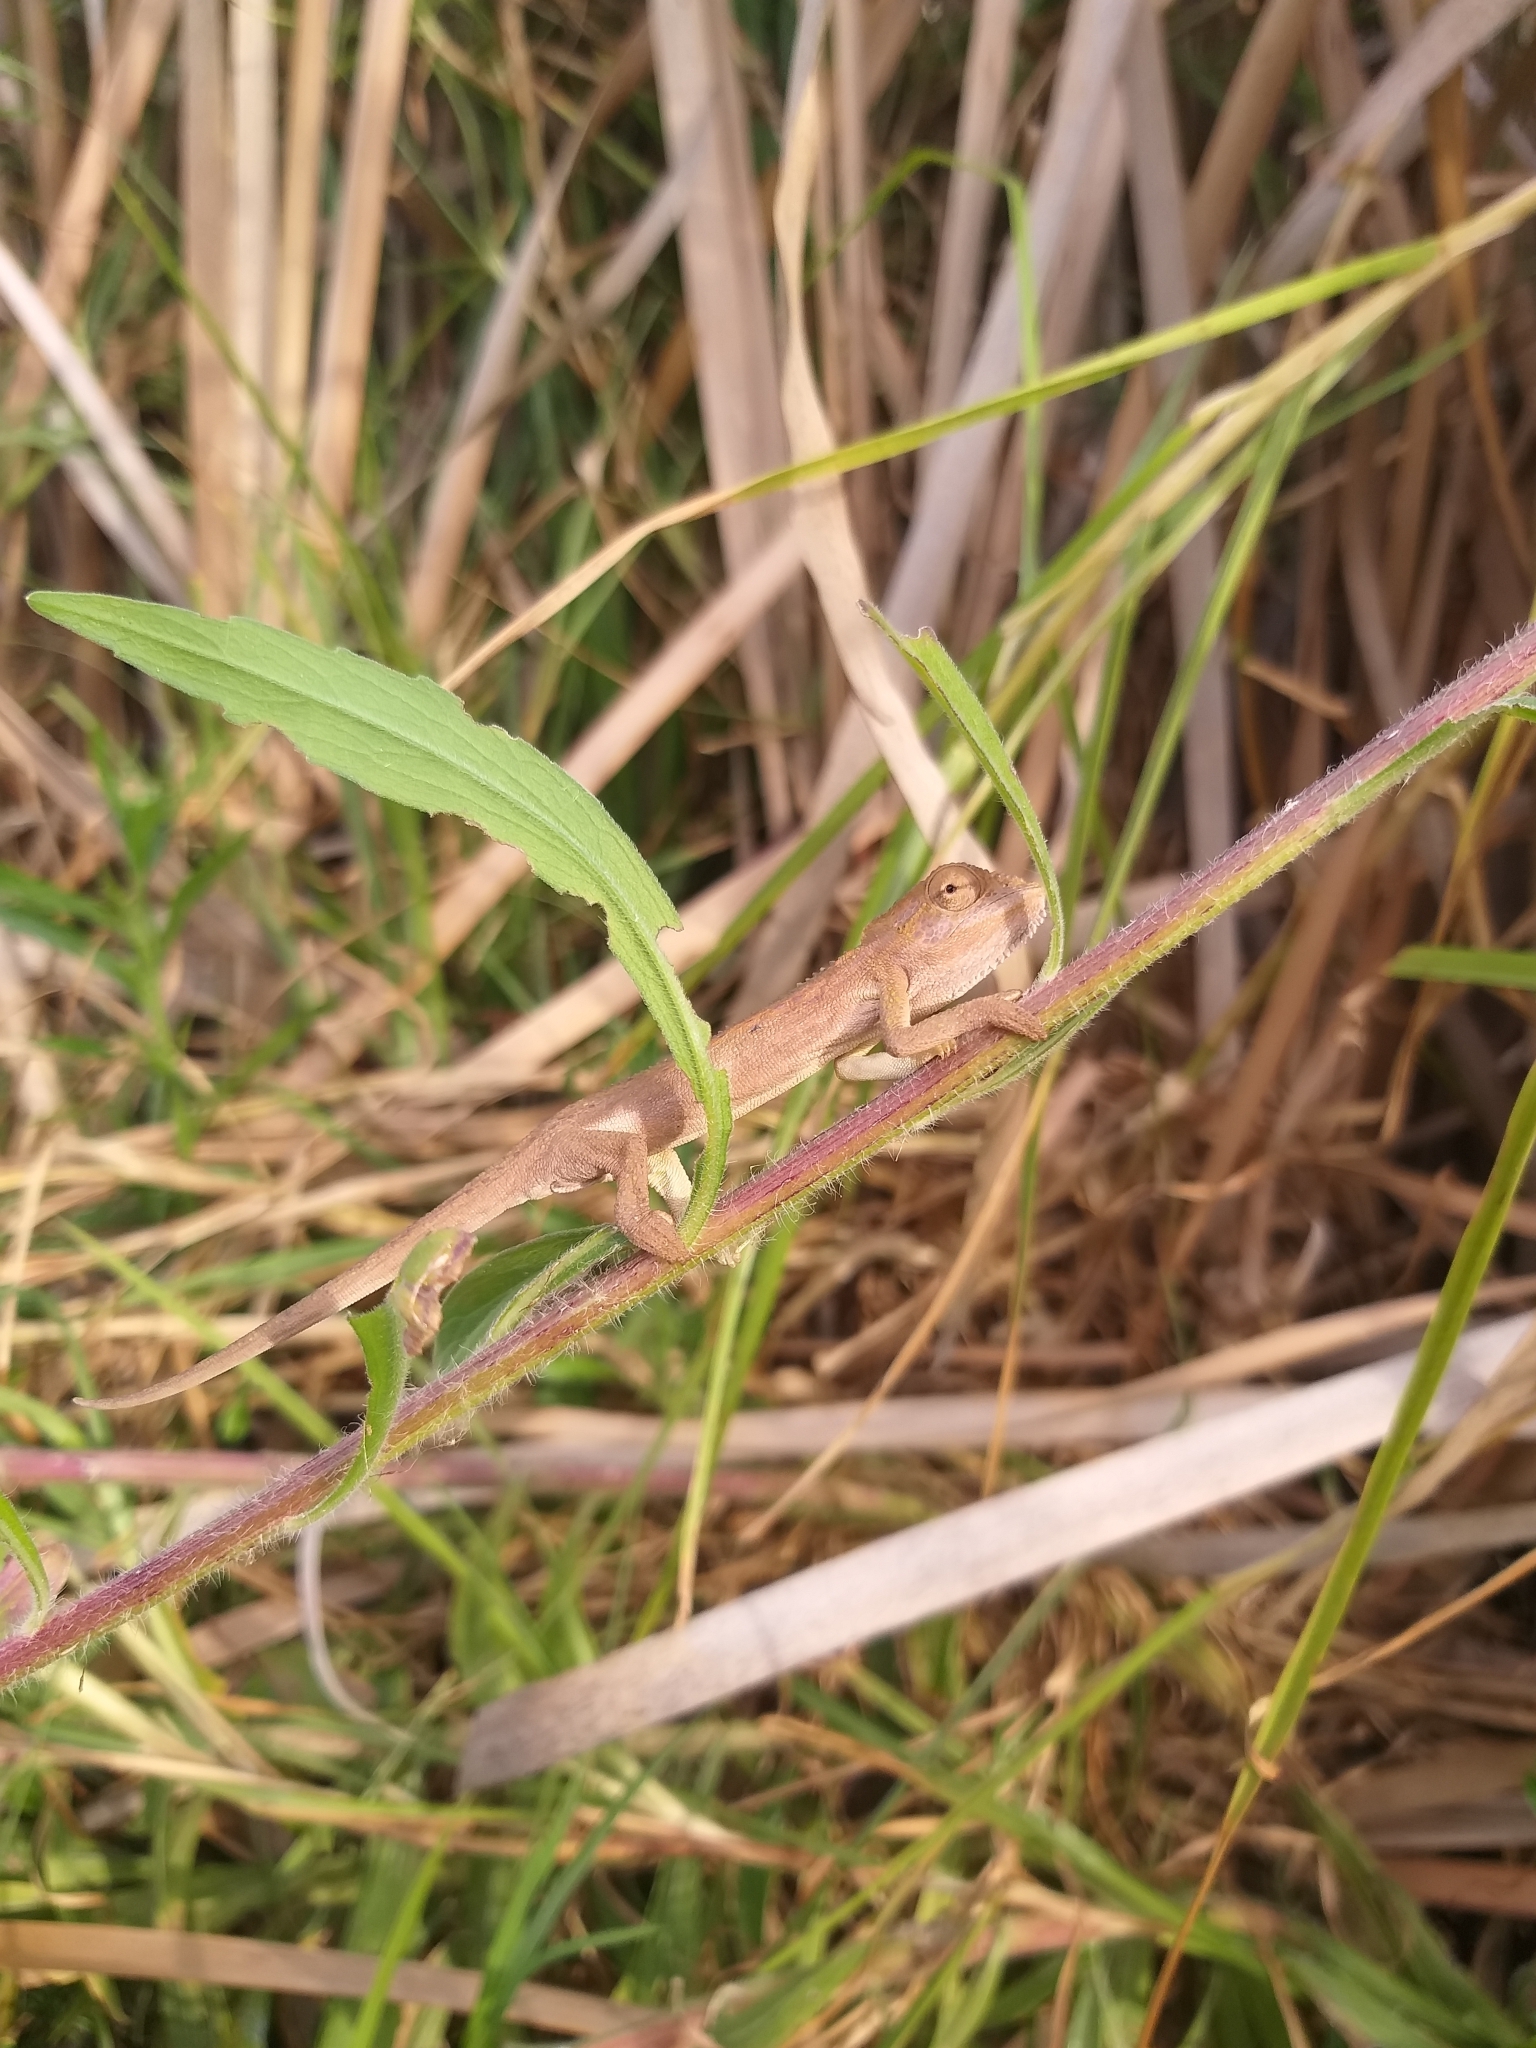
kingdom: Animalia
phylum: Chordata
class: Squamata
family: Chamaeleonidae
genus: Bradypodion
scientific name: Bradypodion pumilum
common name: Cape dwarf chameleon
